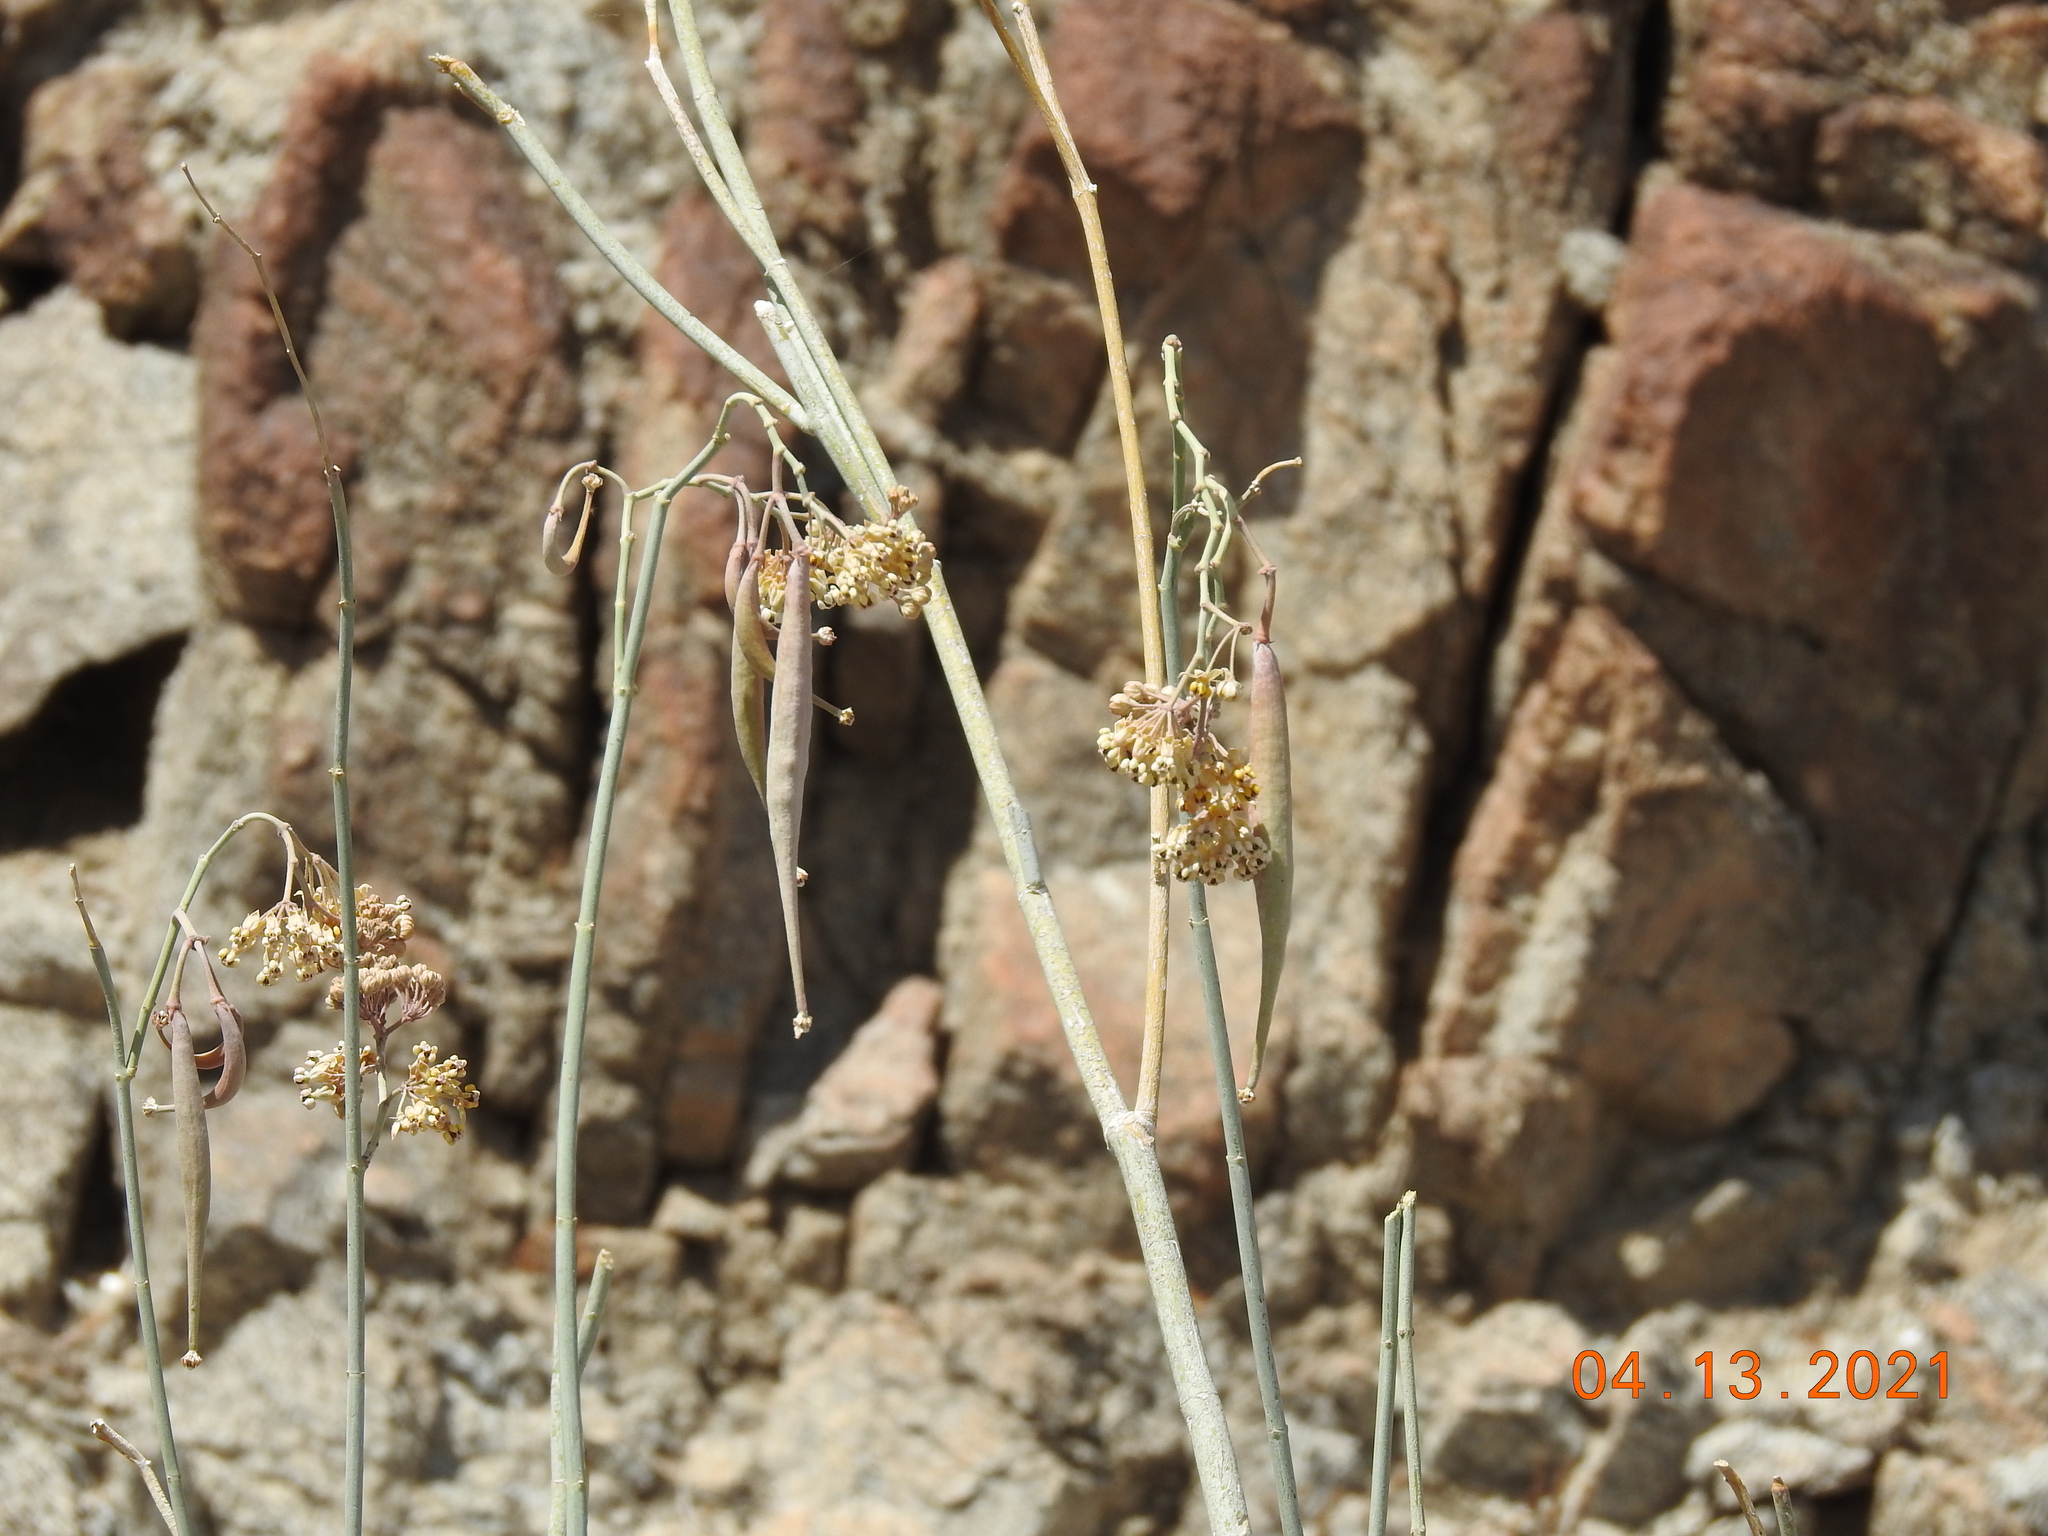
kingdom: Plantae
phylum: Tracheophyta
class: Magnoliopsida
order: Gentianales
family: Apocynaceae
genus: Asclepias
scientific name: Asclepias albicans
